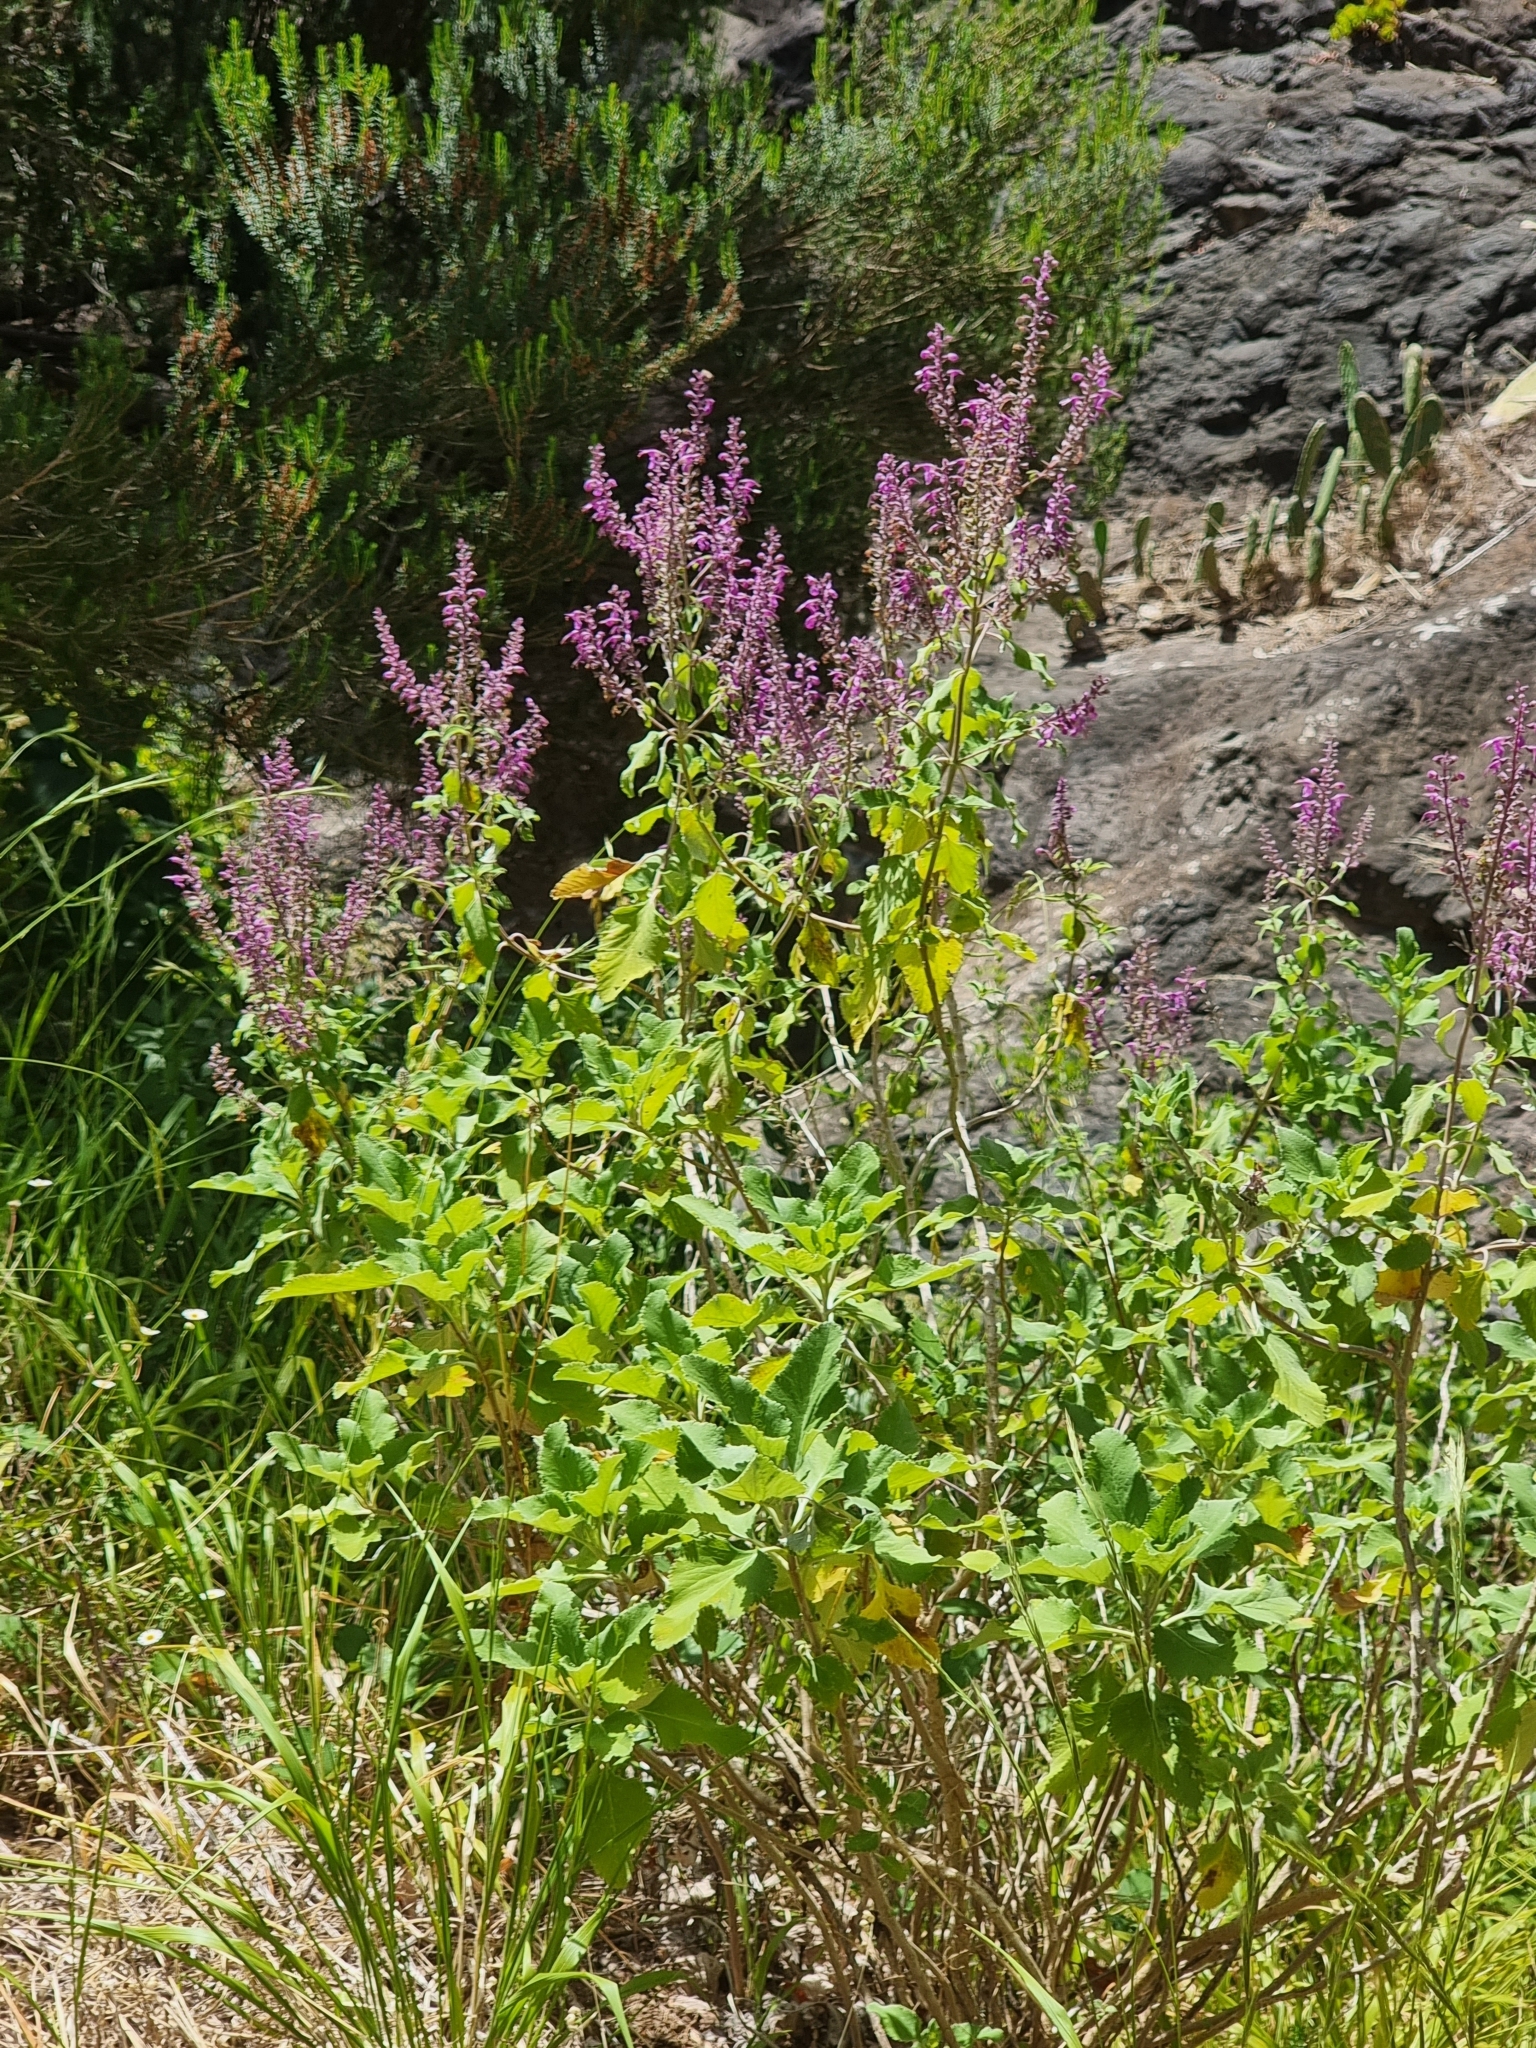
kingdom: Plantae
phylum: Tracheophyta
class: Magnoliopsida
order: Lamiales
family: Lamiaceae
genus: Teucrium
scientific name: Teucrium betonicum
